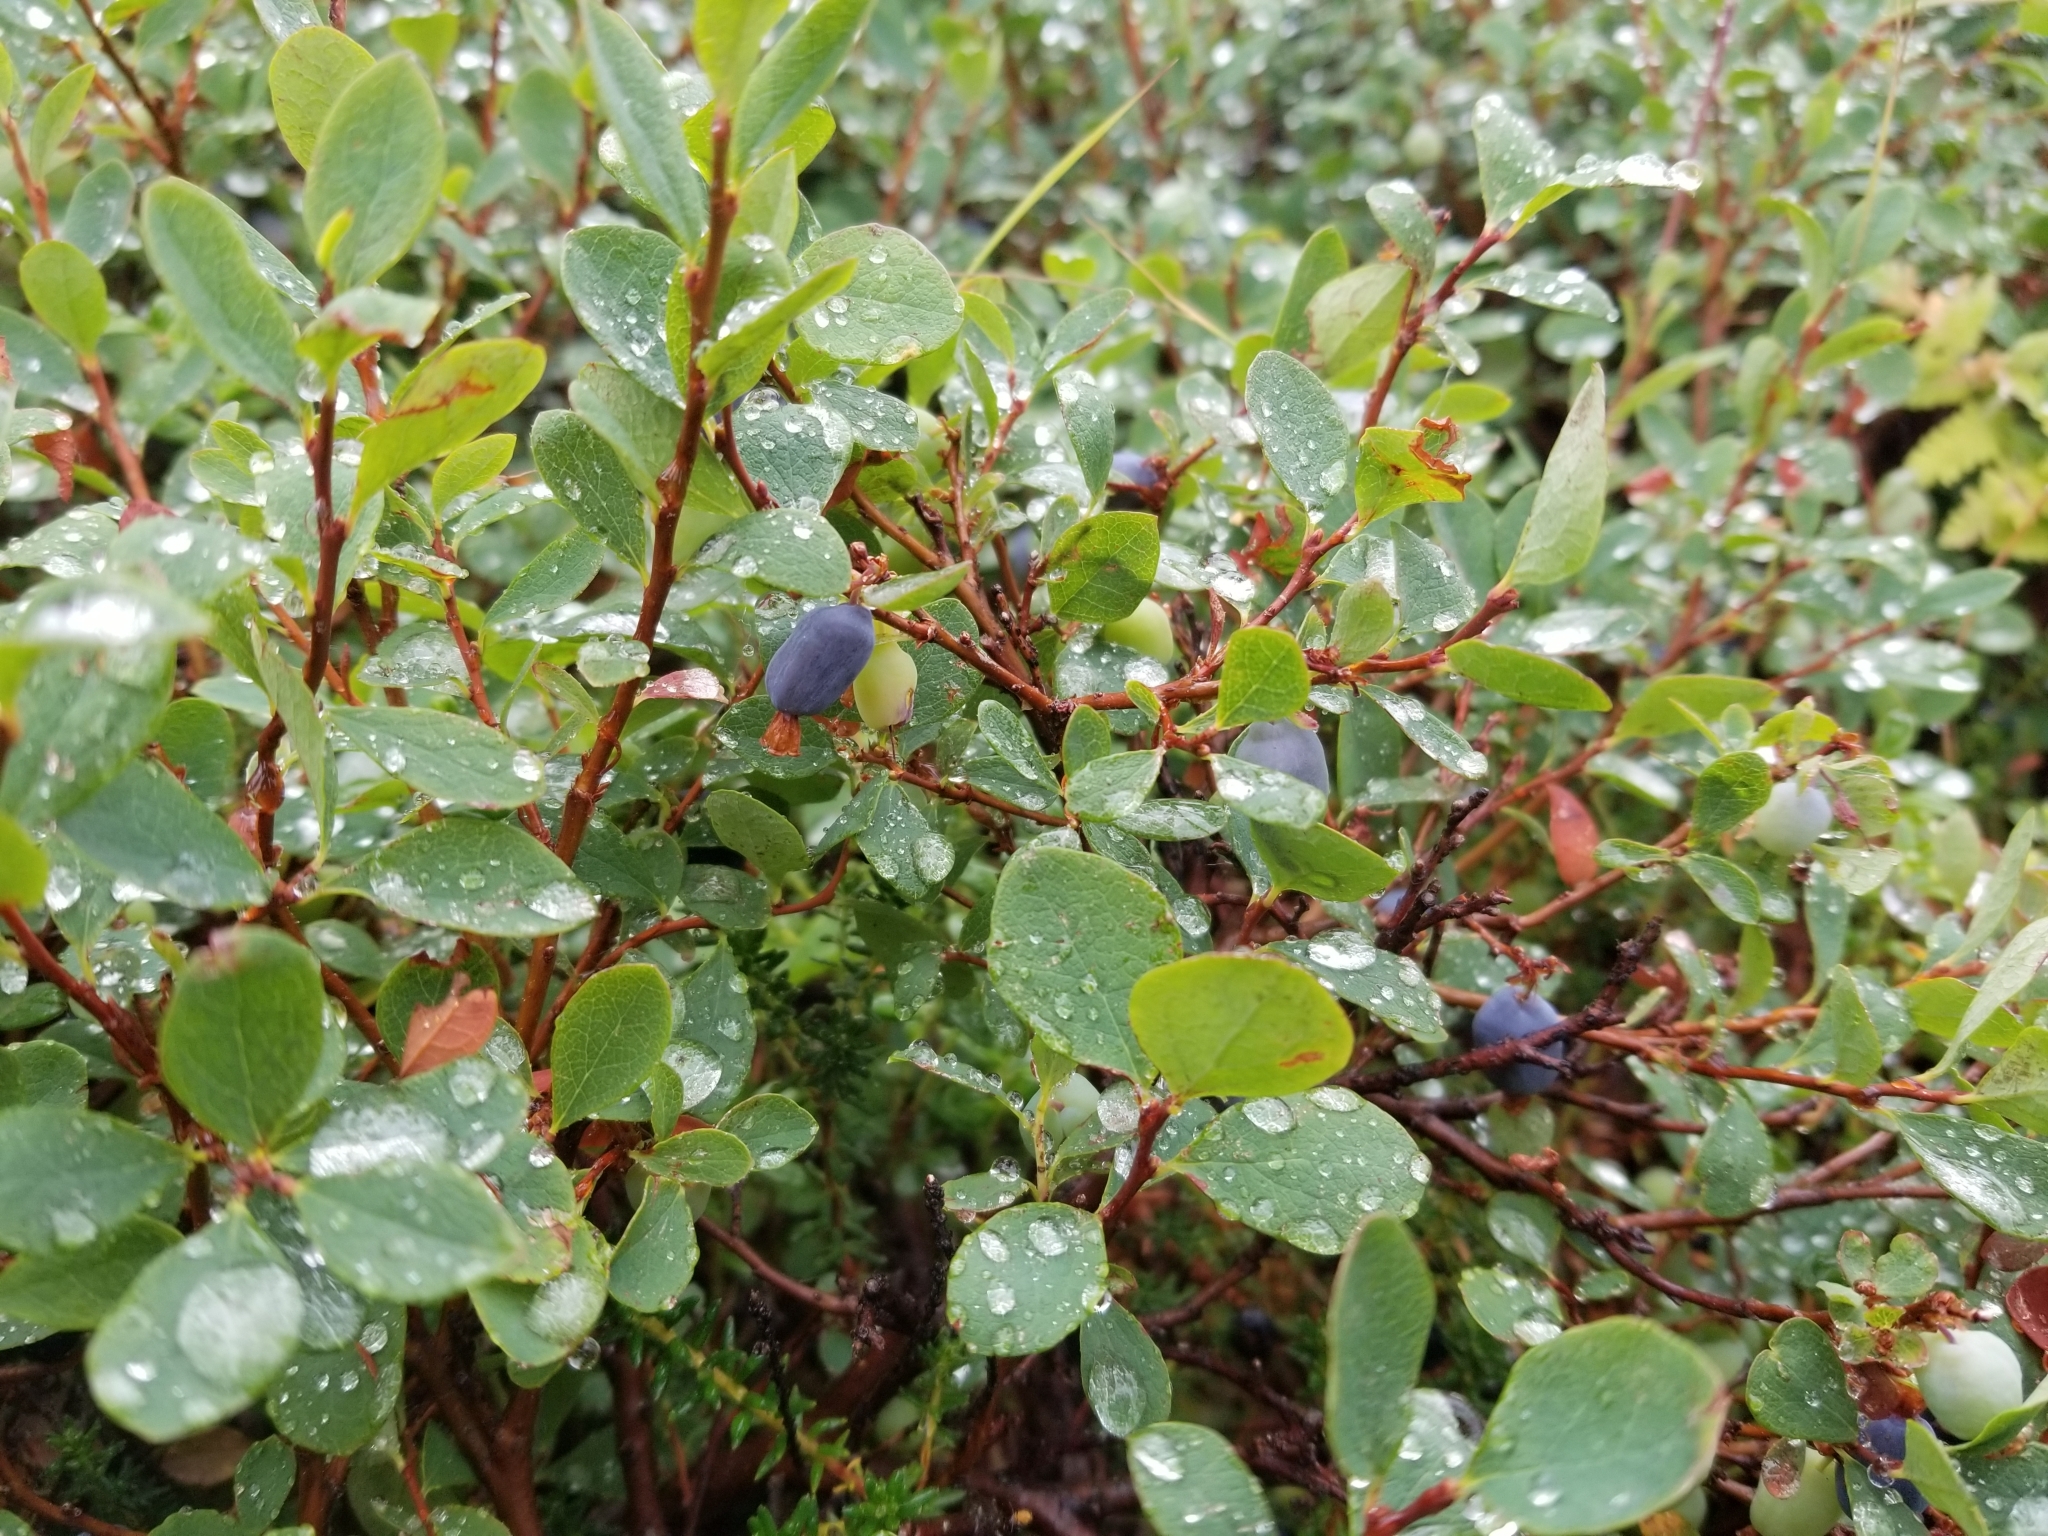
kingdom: Plantae
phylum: Tracheophyta
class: Magnoliopsida
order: Ericales
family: Ericaceae
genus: Vaccinium
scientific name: Vaccinium uliginosum
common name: Bog bilberry
